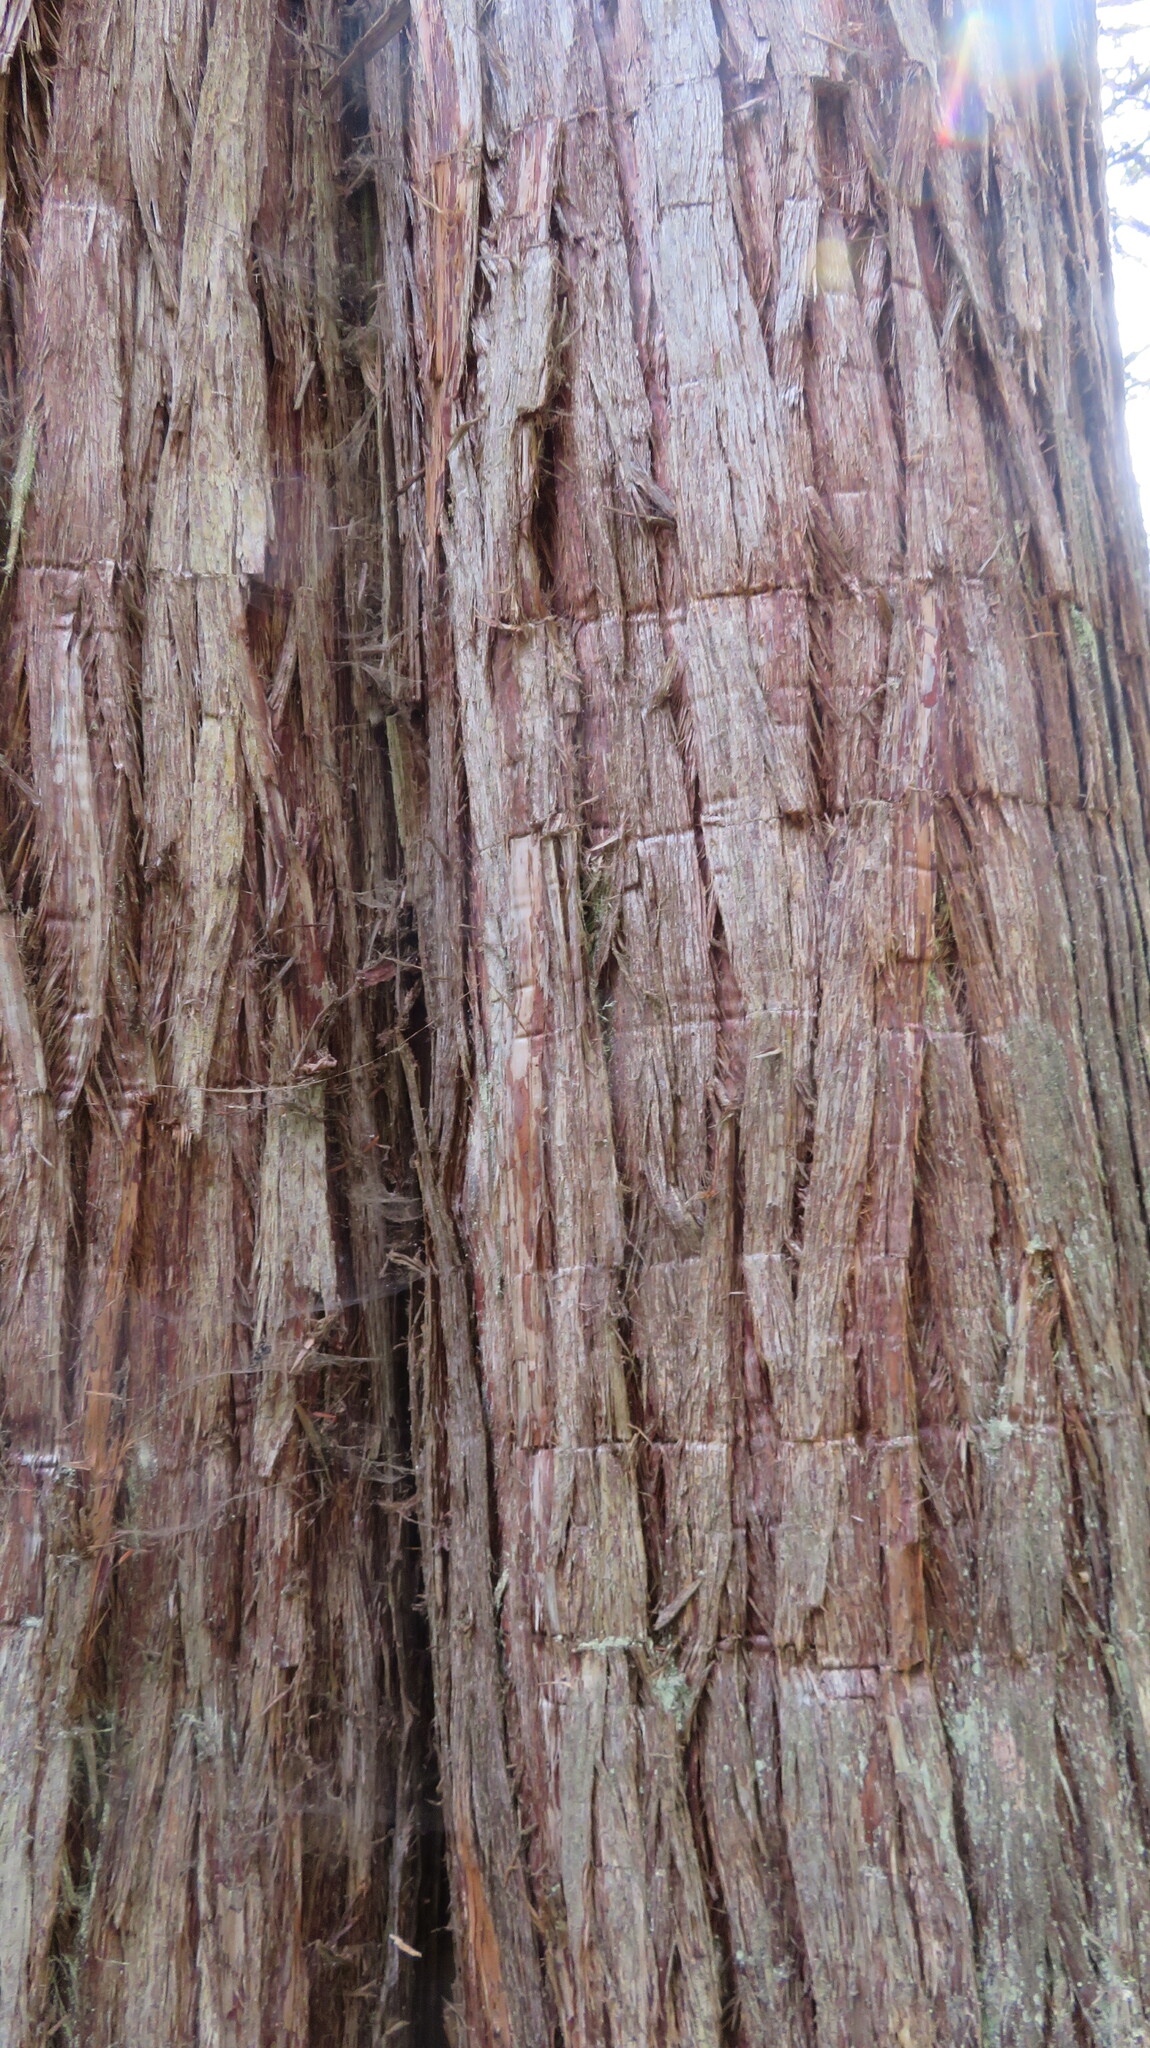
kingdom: Plantae
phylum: Tracheophyta
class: Pinopsida
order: Pinales
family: Cupressaceae
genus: Thuja
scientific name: Thuja plicata
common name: Western red-cedar
